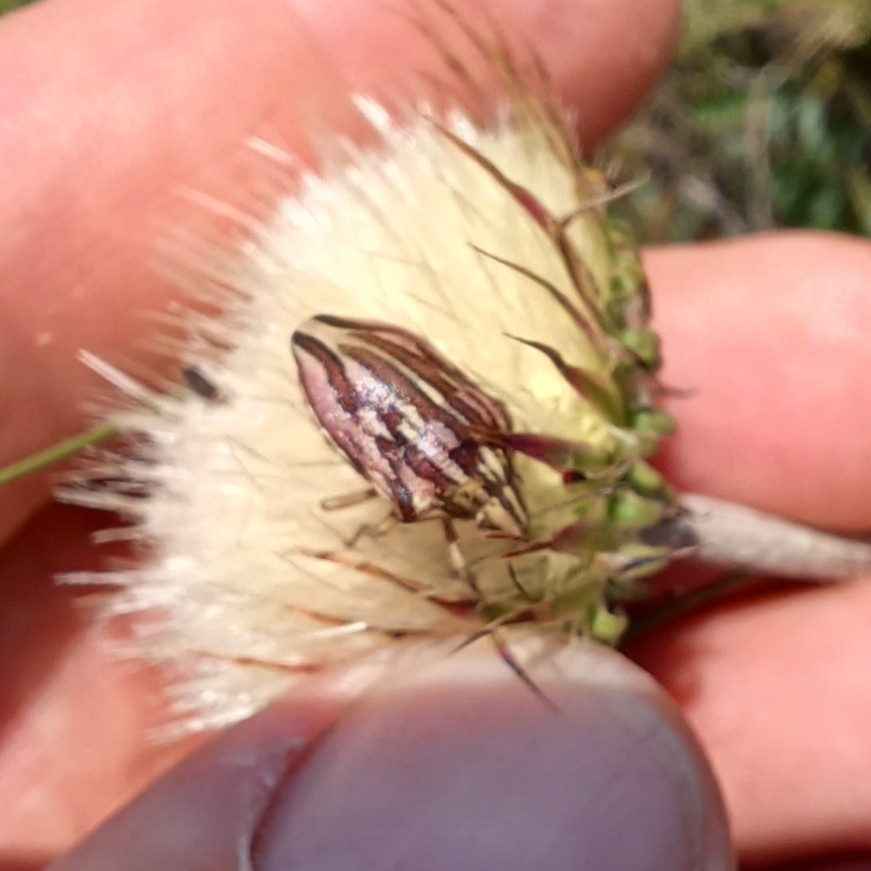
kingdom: Animalia
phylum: Arthropoda
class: Insecta
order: Hemiptera
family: Scutelleridae
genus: Odontotarsus
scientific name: Odontotarsus purpureolineatus
